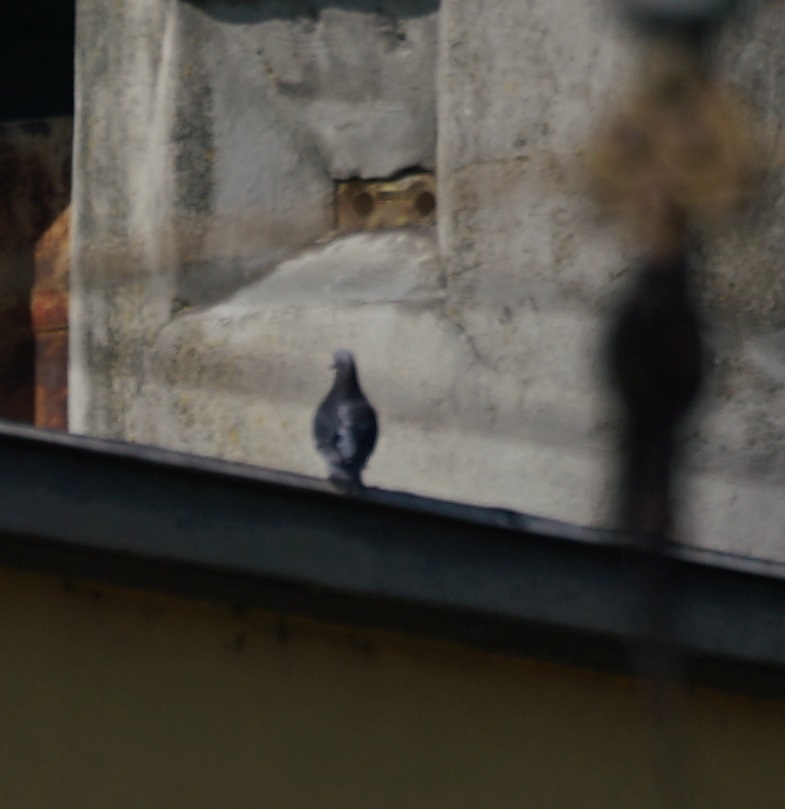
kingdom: Animalia
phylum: Chordata
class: Aves
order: Columbiformes
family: Columbidae
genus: Columba
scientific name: Columba livia
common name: Rock pigeon
